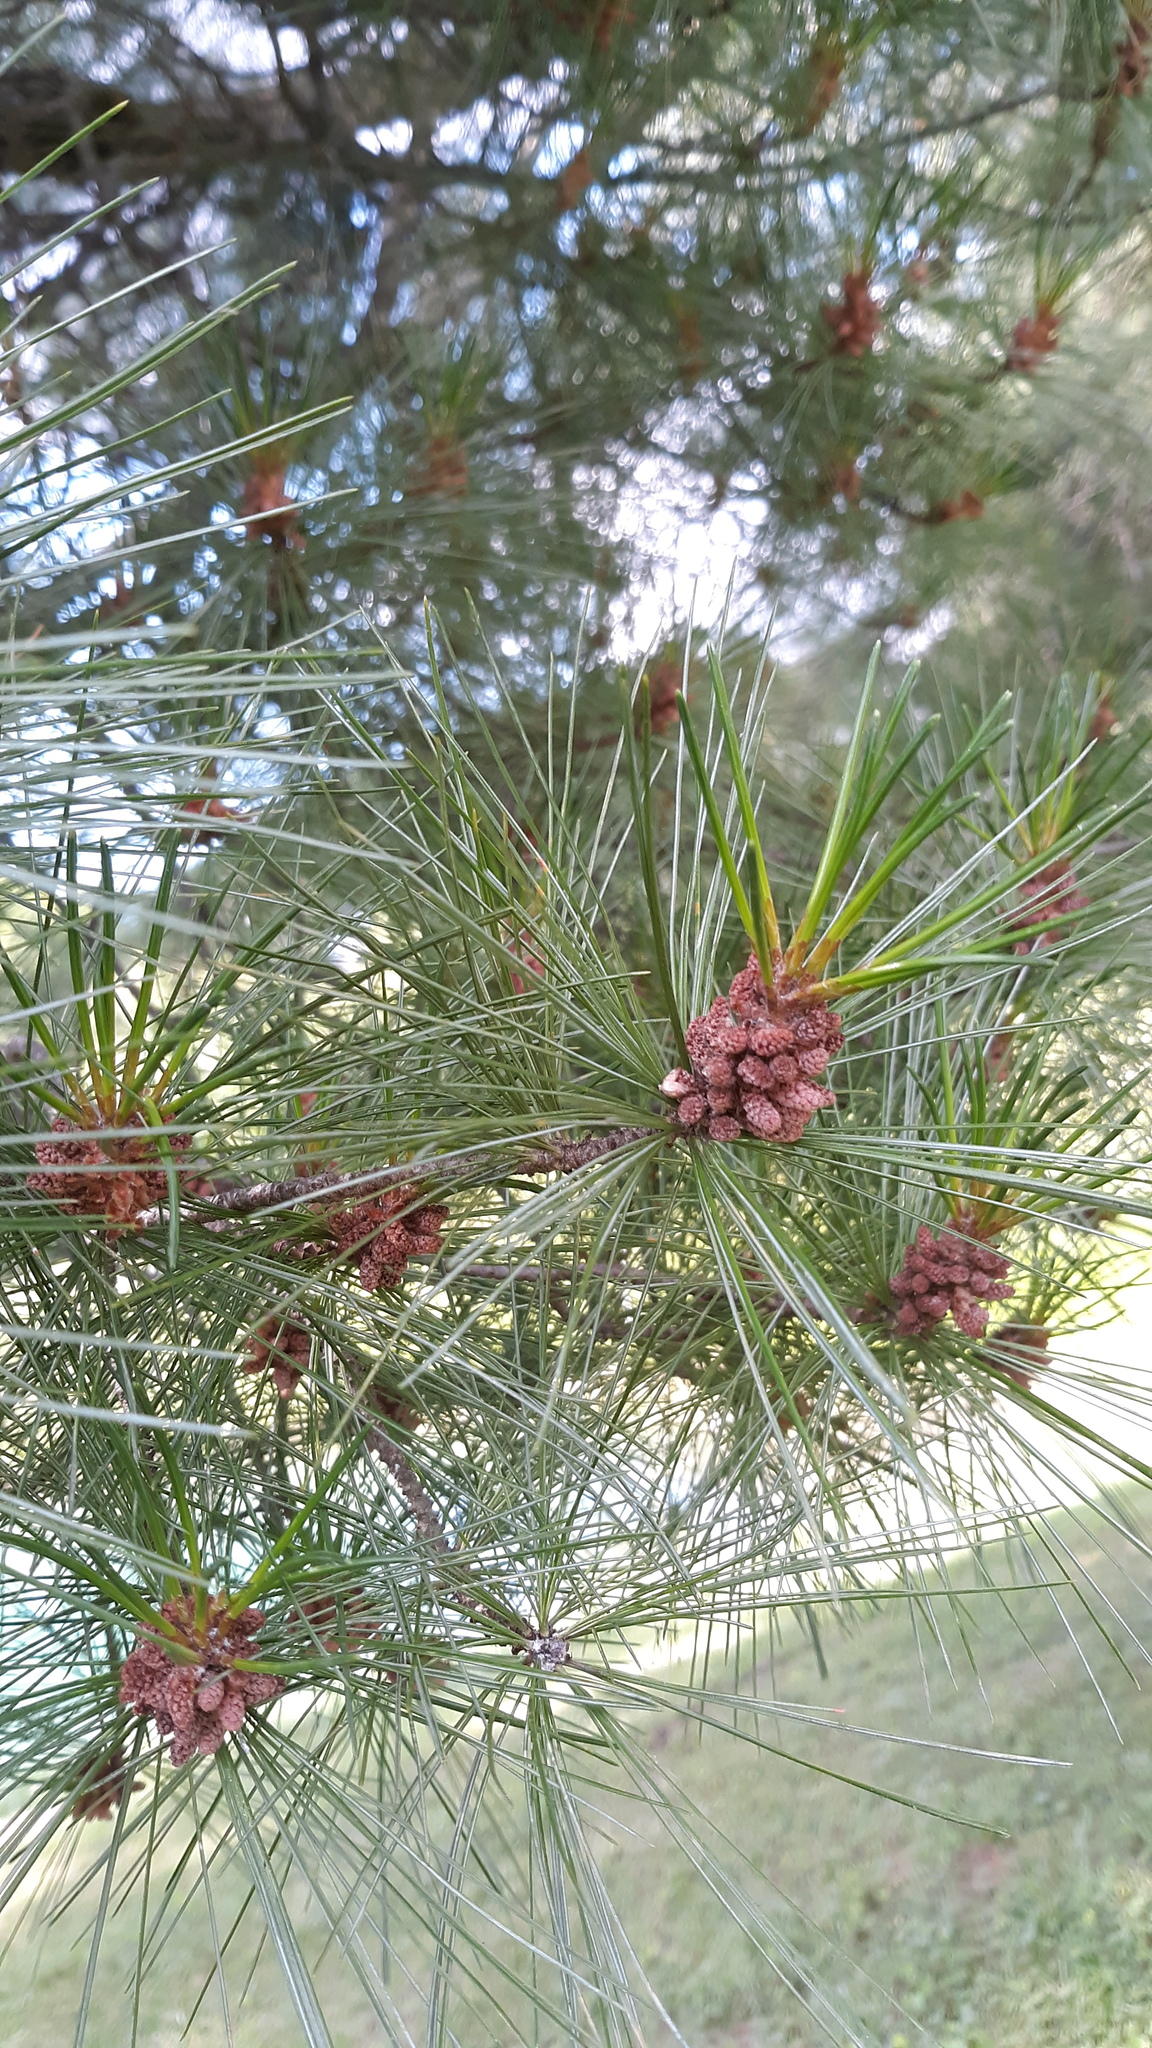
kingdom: Plantae
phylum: Tracheophyta
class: Pinopsida
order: Pinales
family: Pinaceae
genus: Pinus
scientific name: Pinus strobus
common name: Weymouth pine
